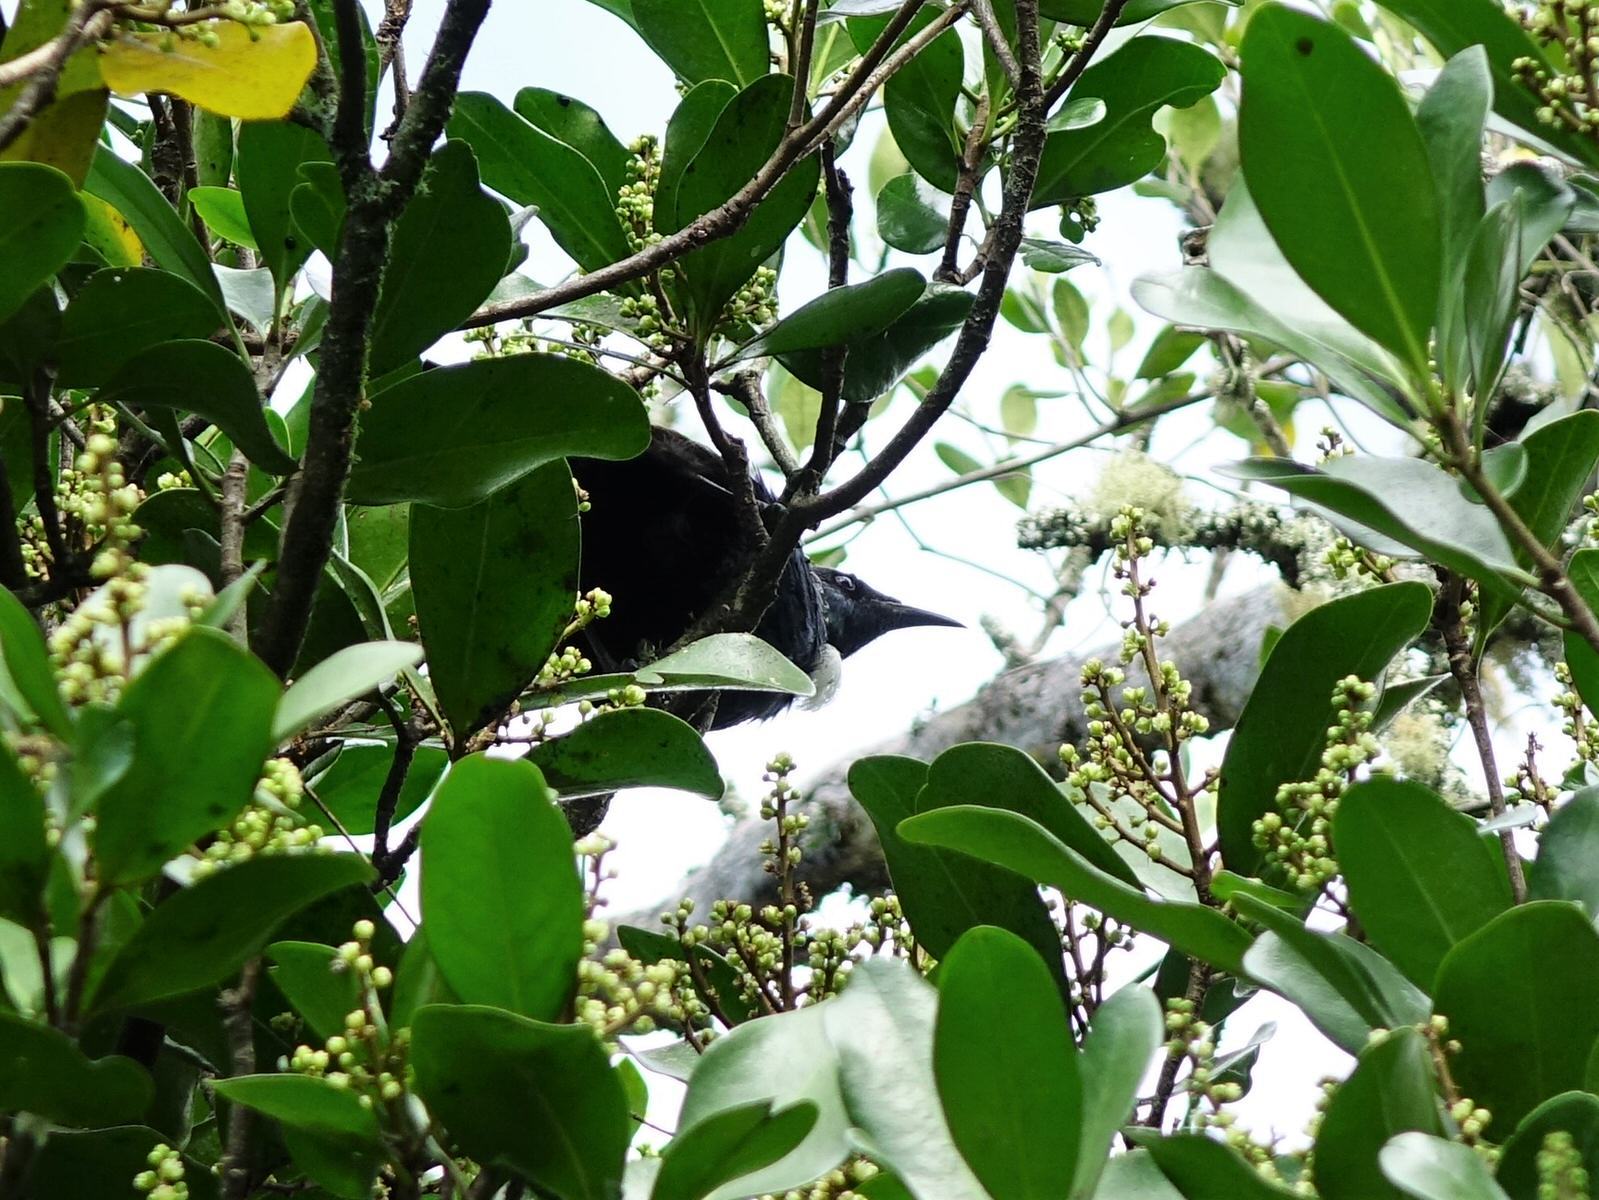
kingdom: Animalia
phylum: Chordata
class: Aves
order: Passeriformes
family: Meliphagidae
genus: Prosthemadera
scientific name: Prosthemadera novaeseelandiae
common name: Tui
